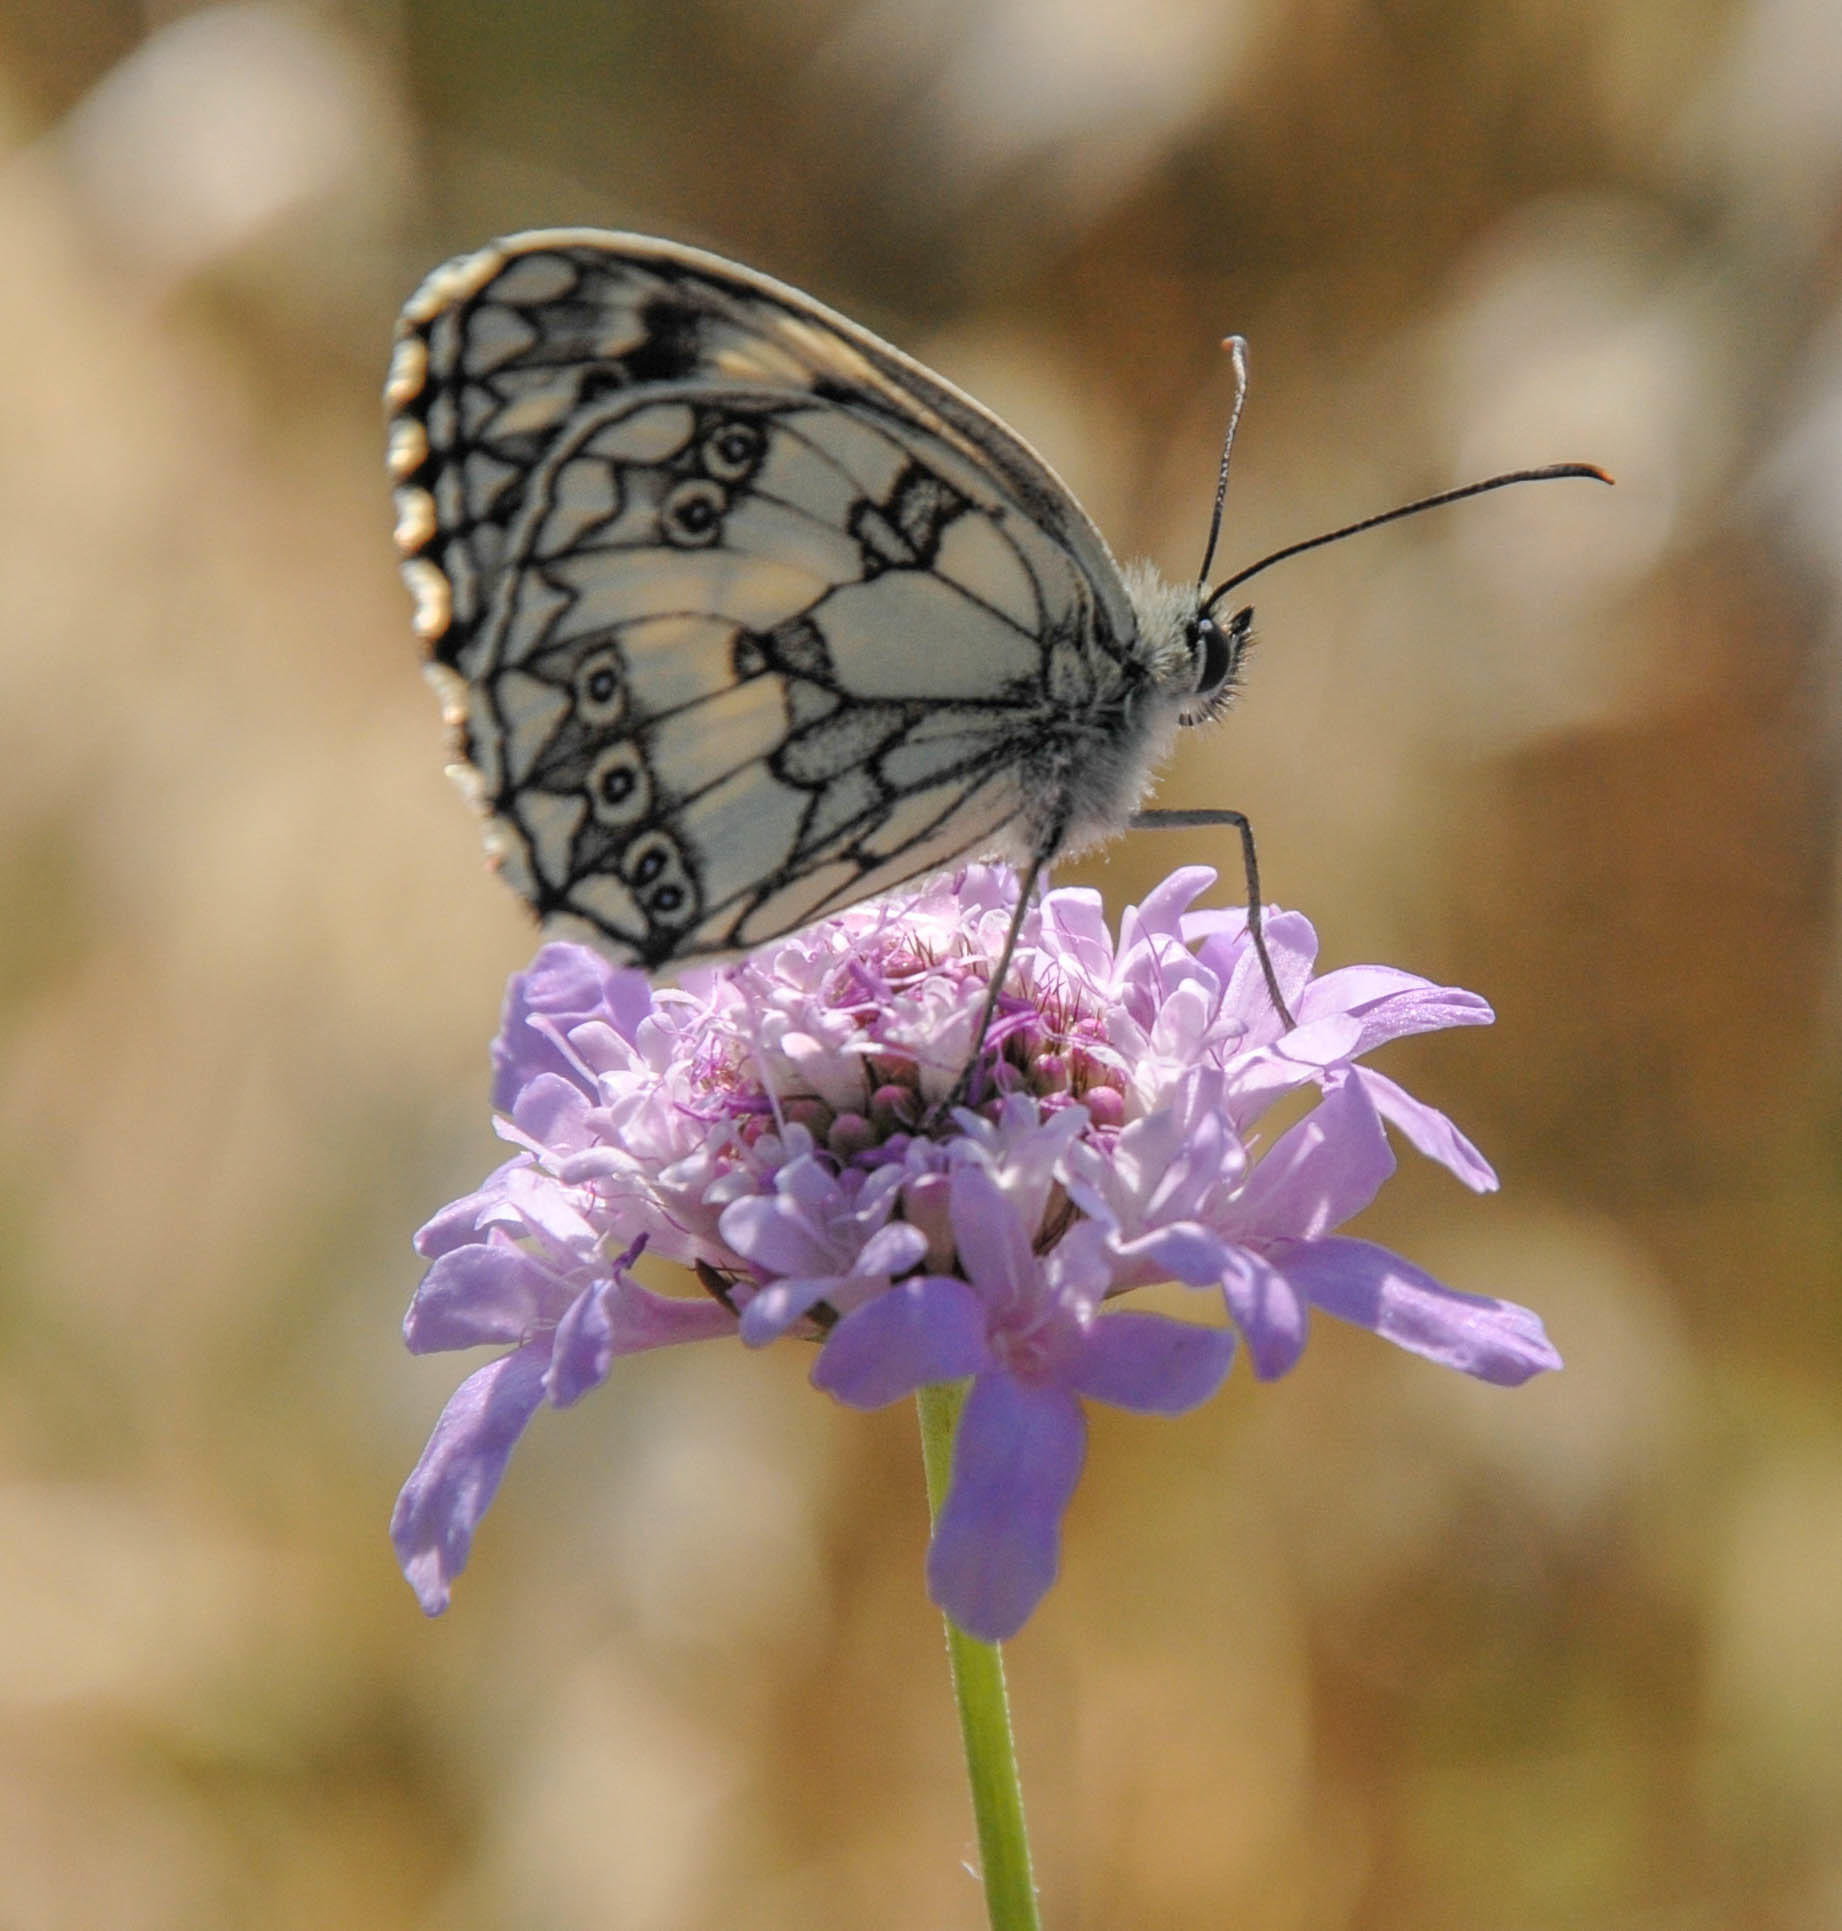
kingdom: Animalia
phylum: Arthropoda
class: Insecta
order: Lepidoptera
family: Nymphalidae
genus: Melanargia
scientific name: Melanargia galathea
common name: Marbled white
